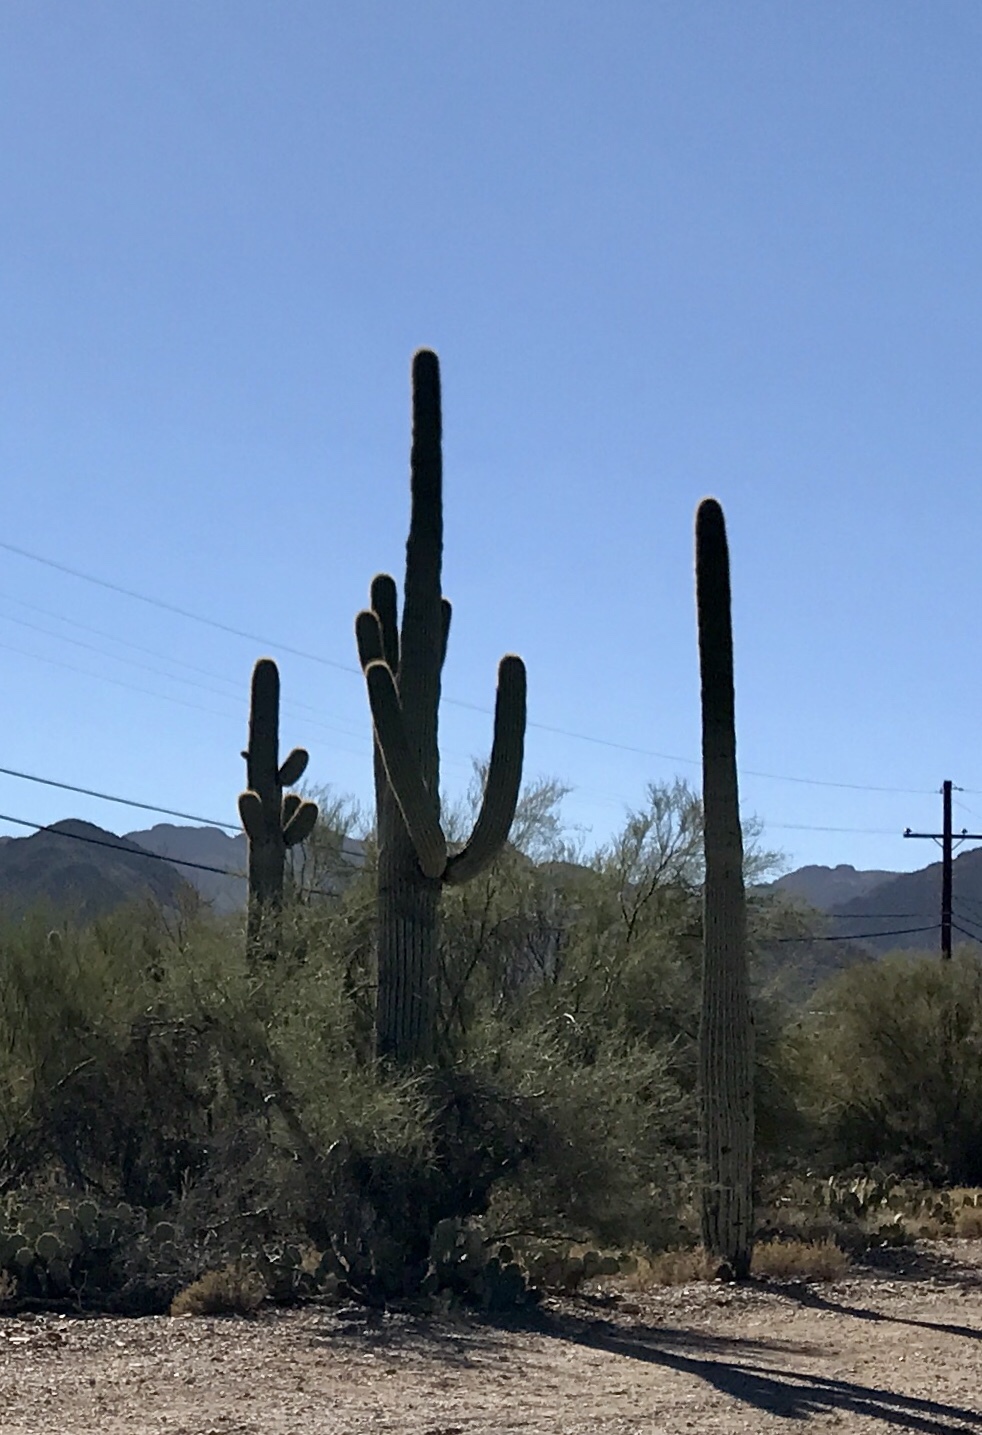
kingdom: Plantae
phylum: Tracheophyta
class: Magnoliopsida
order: Caryophyllales
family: Cactaceae
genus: Carnegiea
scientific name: Carnegiea gigantea
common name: Saguaro
